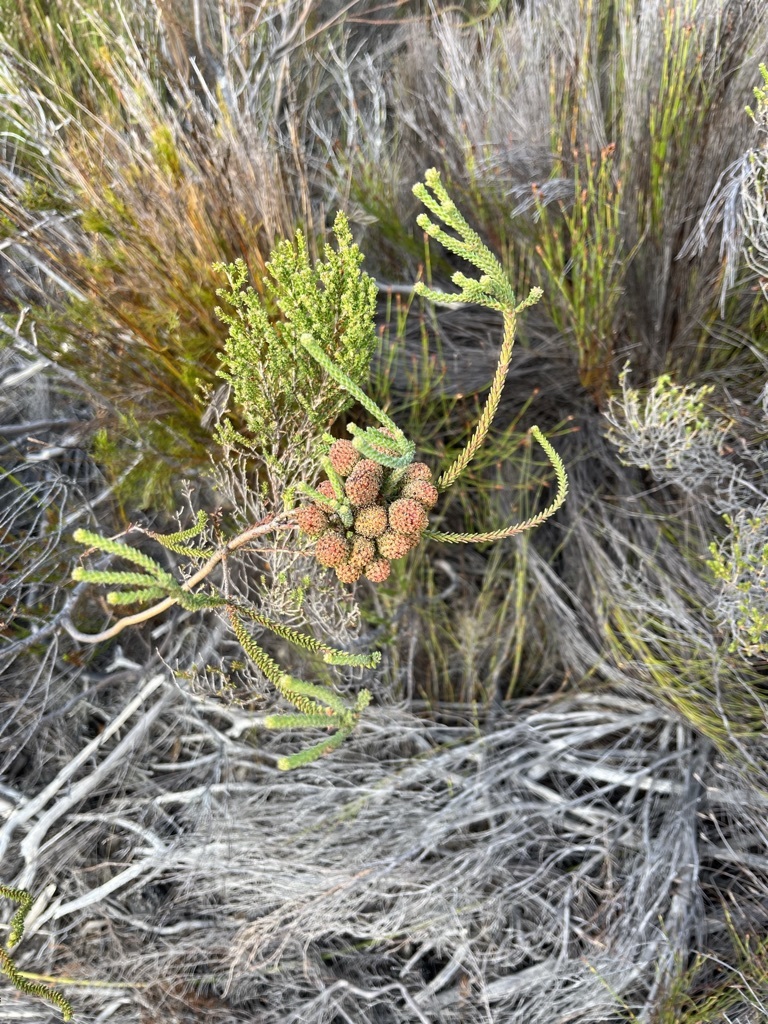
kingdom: Plantae
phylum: Tracheophyta
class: Magnoliopsida
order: Bruniales
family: Bruniaceae
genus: Berzelia
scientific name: Berzelia abrotanoides
